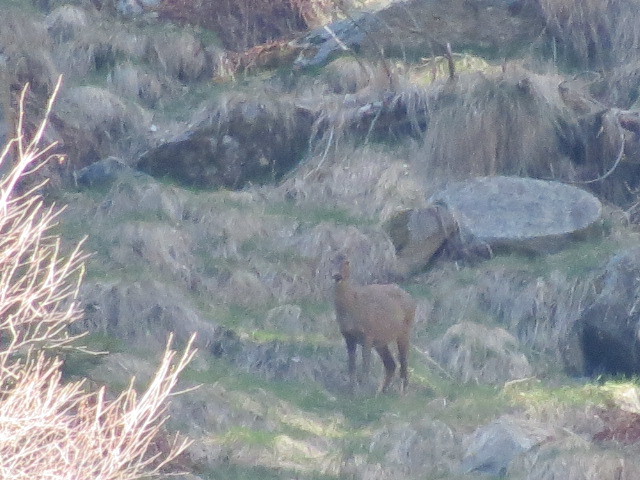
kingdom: Animalia
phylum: Chordata
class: Mammalia
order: Artiodactyla
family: Cervidae
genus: Capreolus
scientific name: Capreolus capreolus
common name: Western roe deer
